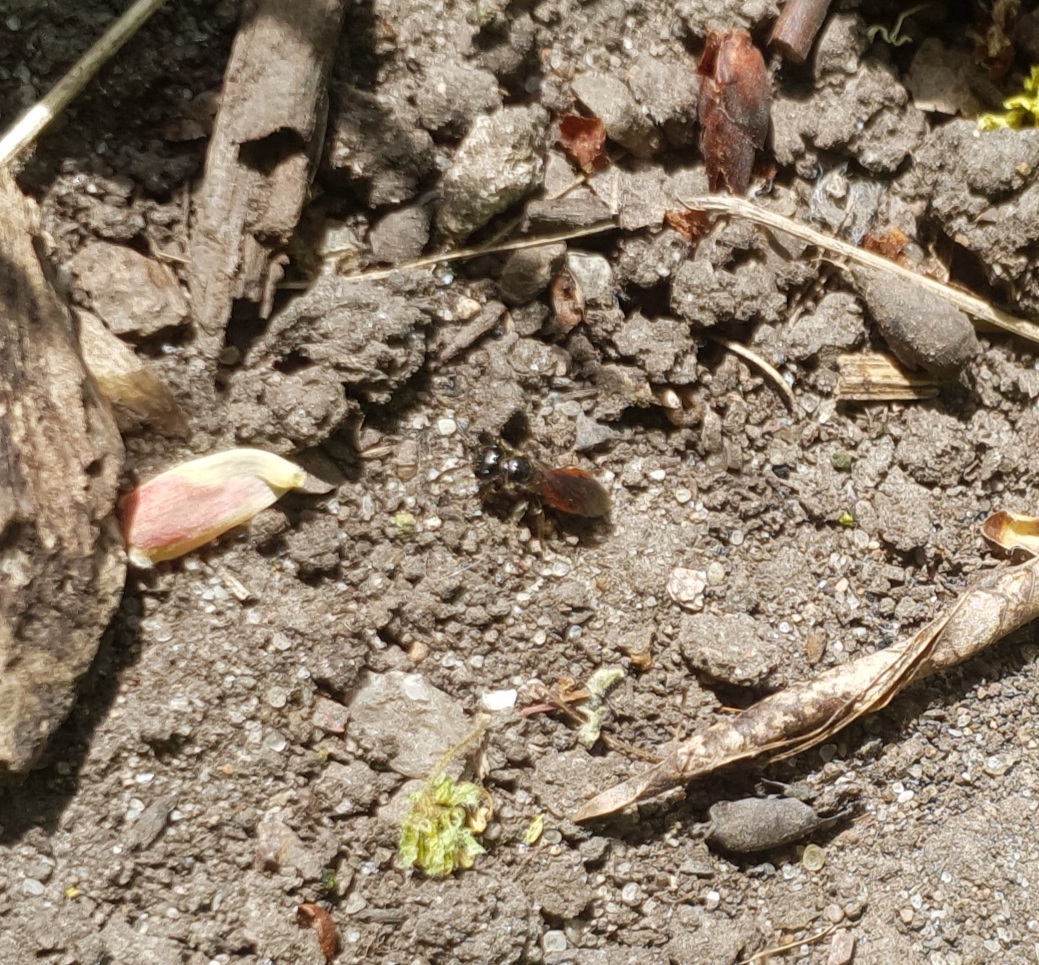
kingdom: Animalia
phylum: Arthropoda
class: Insecta
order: Hymenoptera
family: Halictidae
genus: Sphecodes
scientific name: Sphecodes
